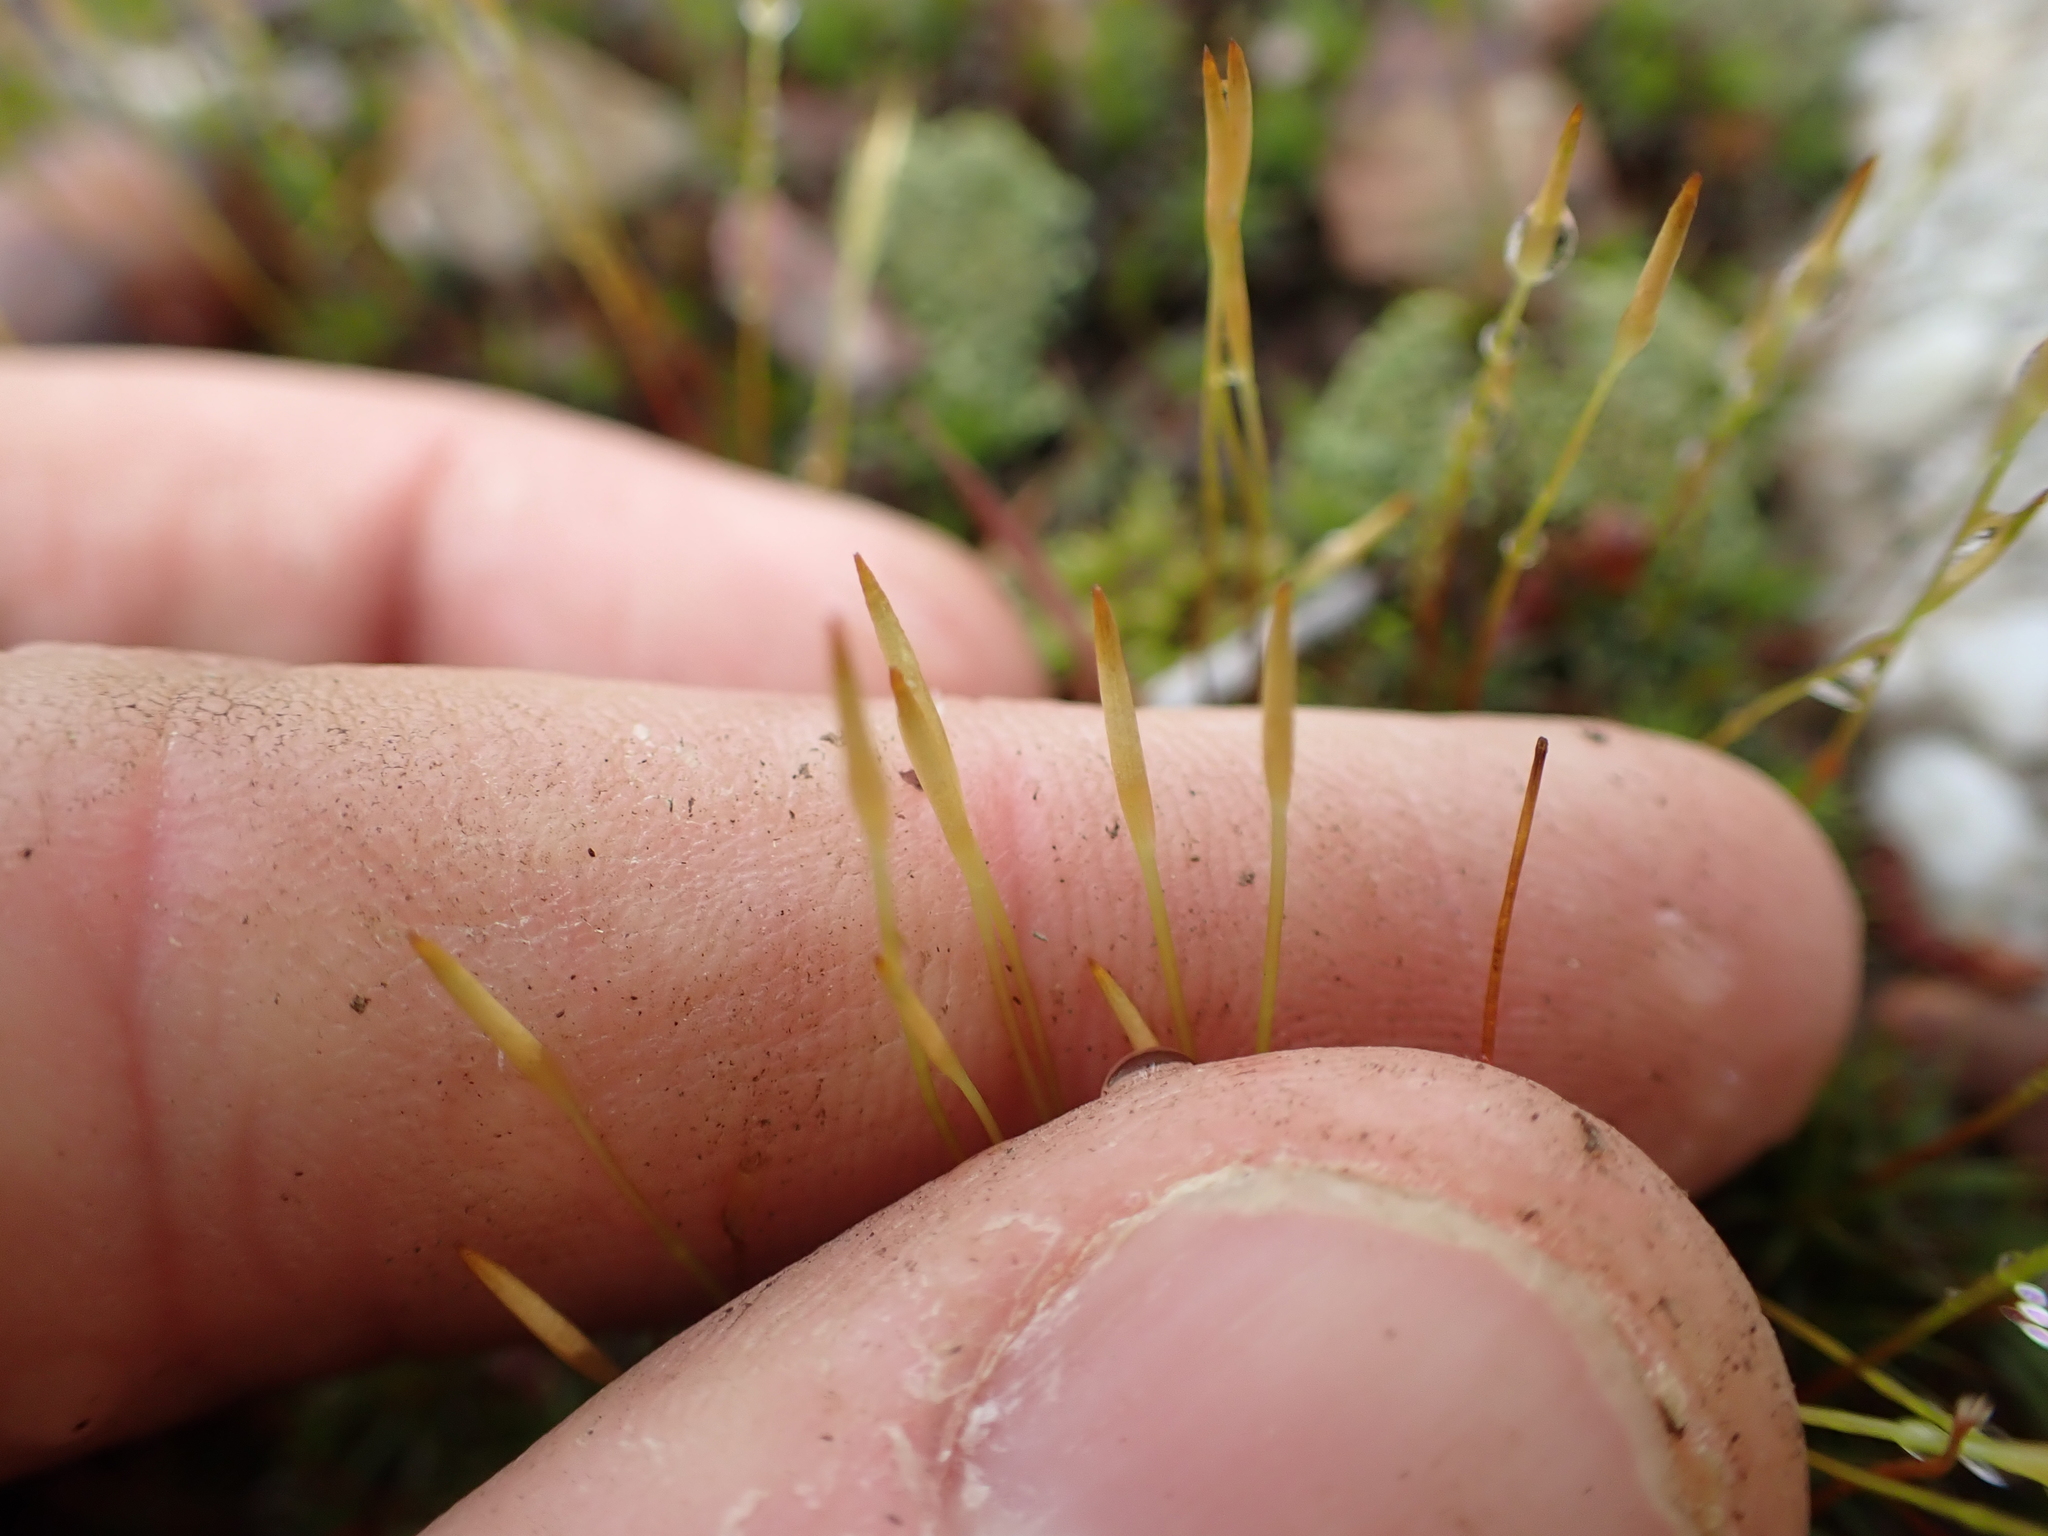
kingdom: Plantae
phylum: Bryophyta
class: Polytrichopsida
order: Polytrichales
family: Polytrichaceae
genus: Polytrichum
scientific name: Polytrichum ohioense
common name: Ohio polytrichum moss
